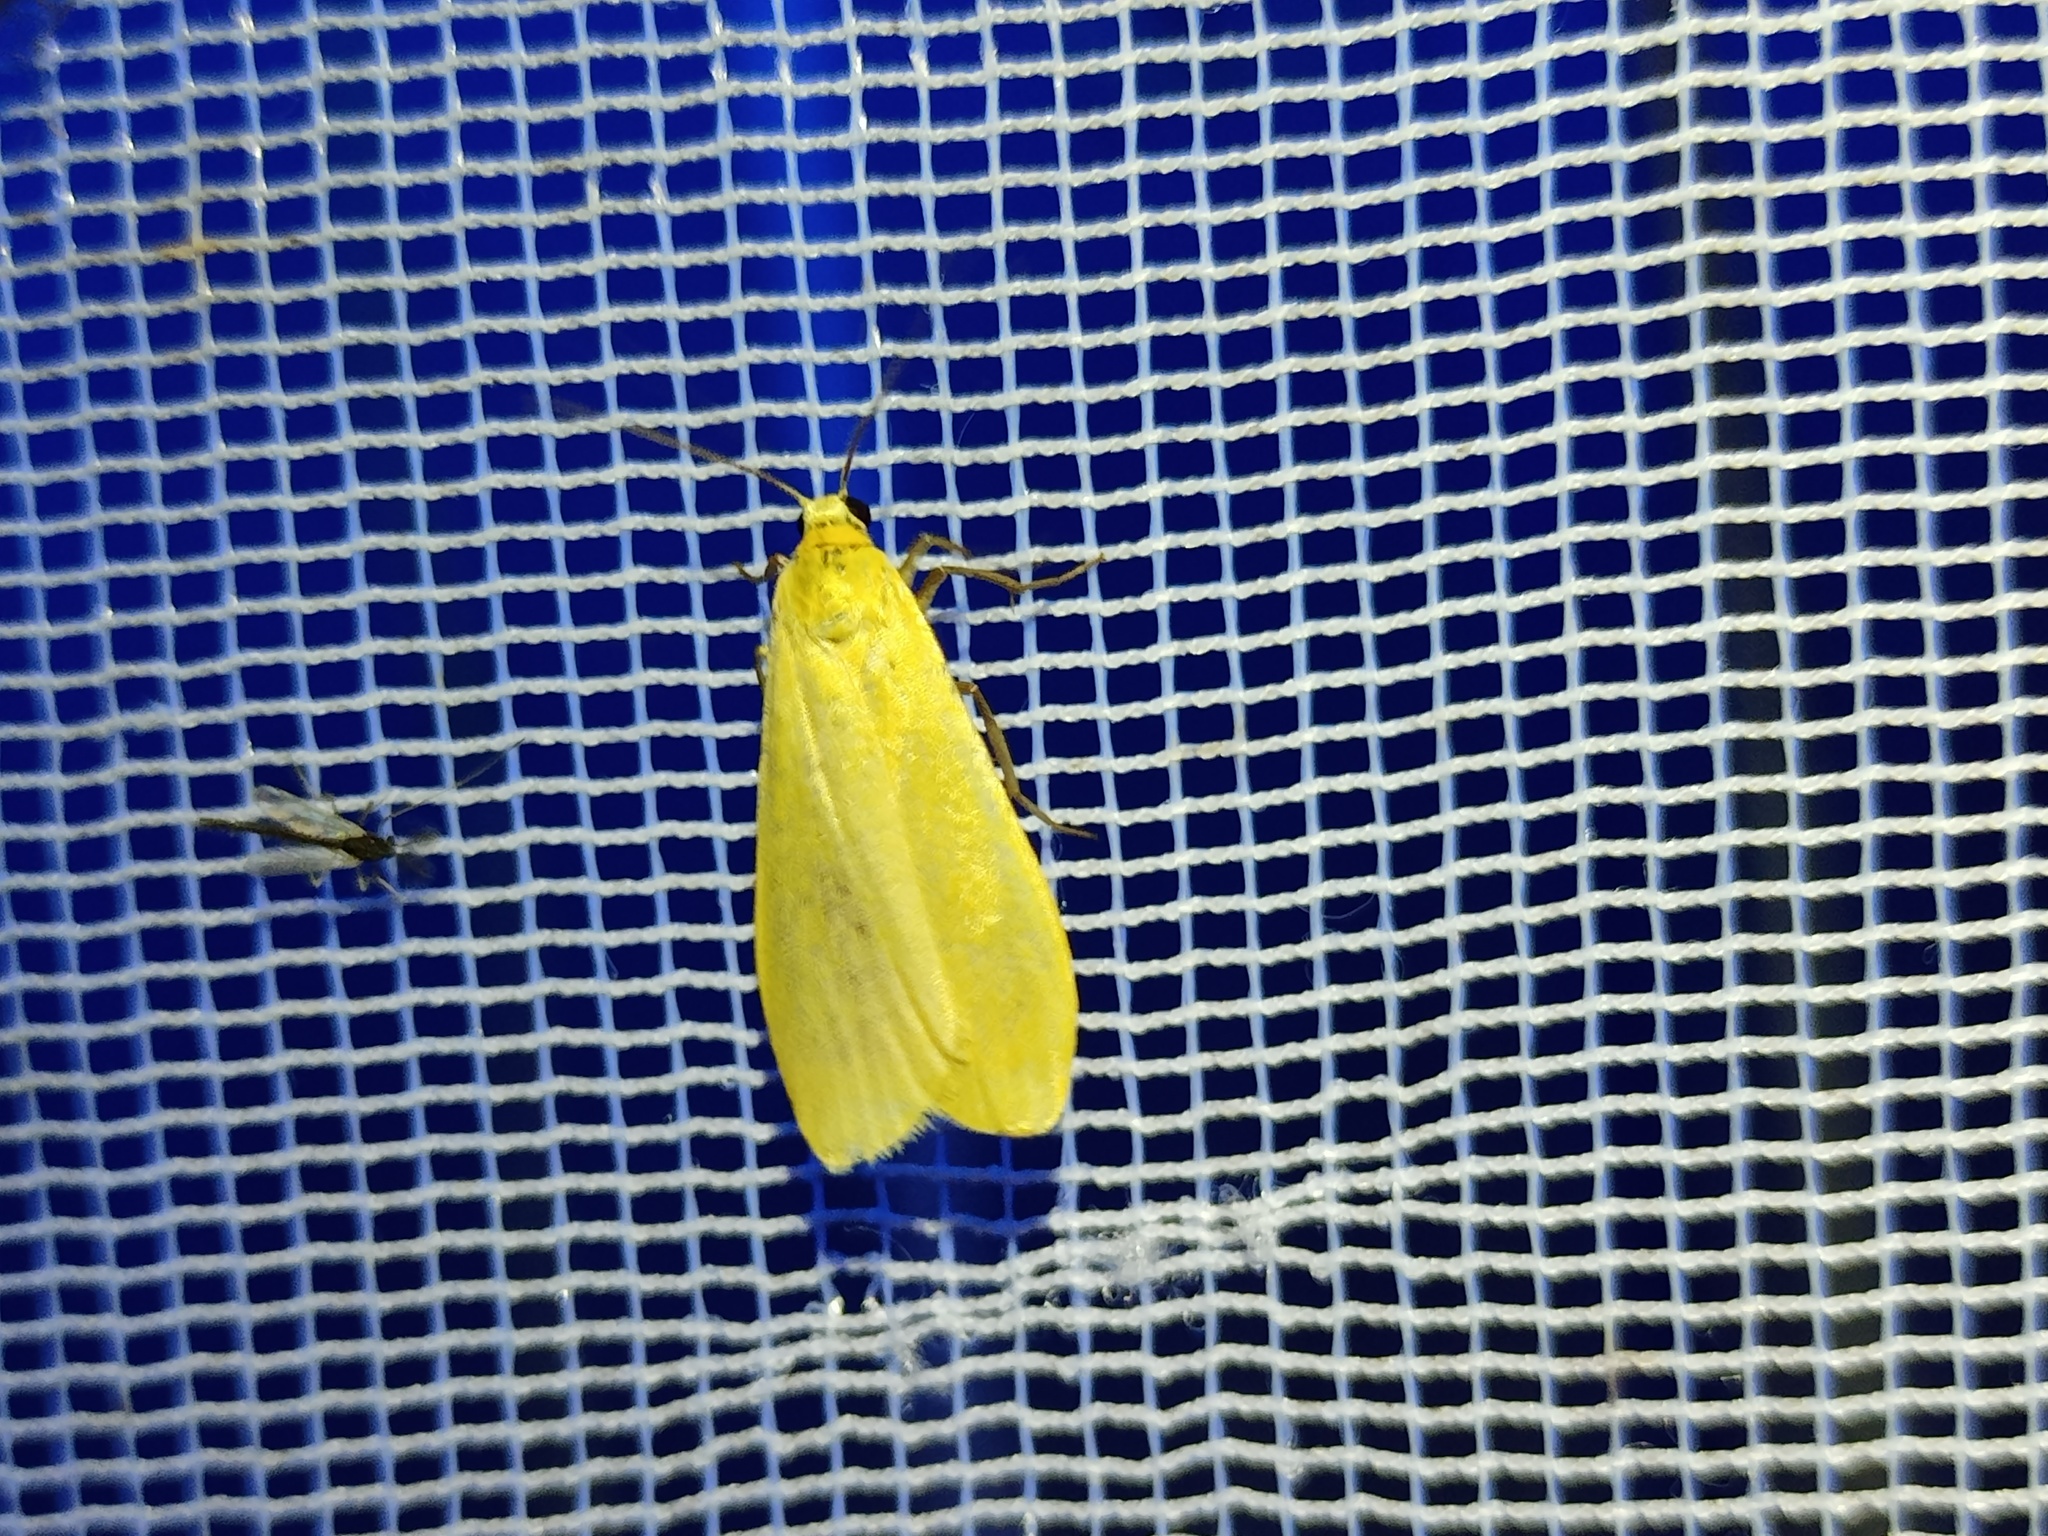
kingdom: Animalia
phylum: Arthropoda
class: Insecta
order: Lepidoptera
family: Erebidae
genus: Wittia
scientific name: Wittia sororcula
